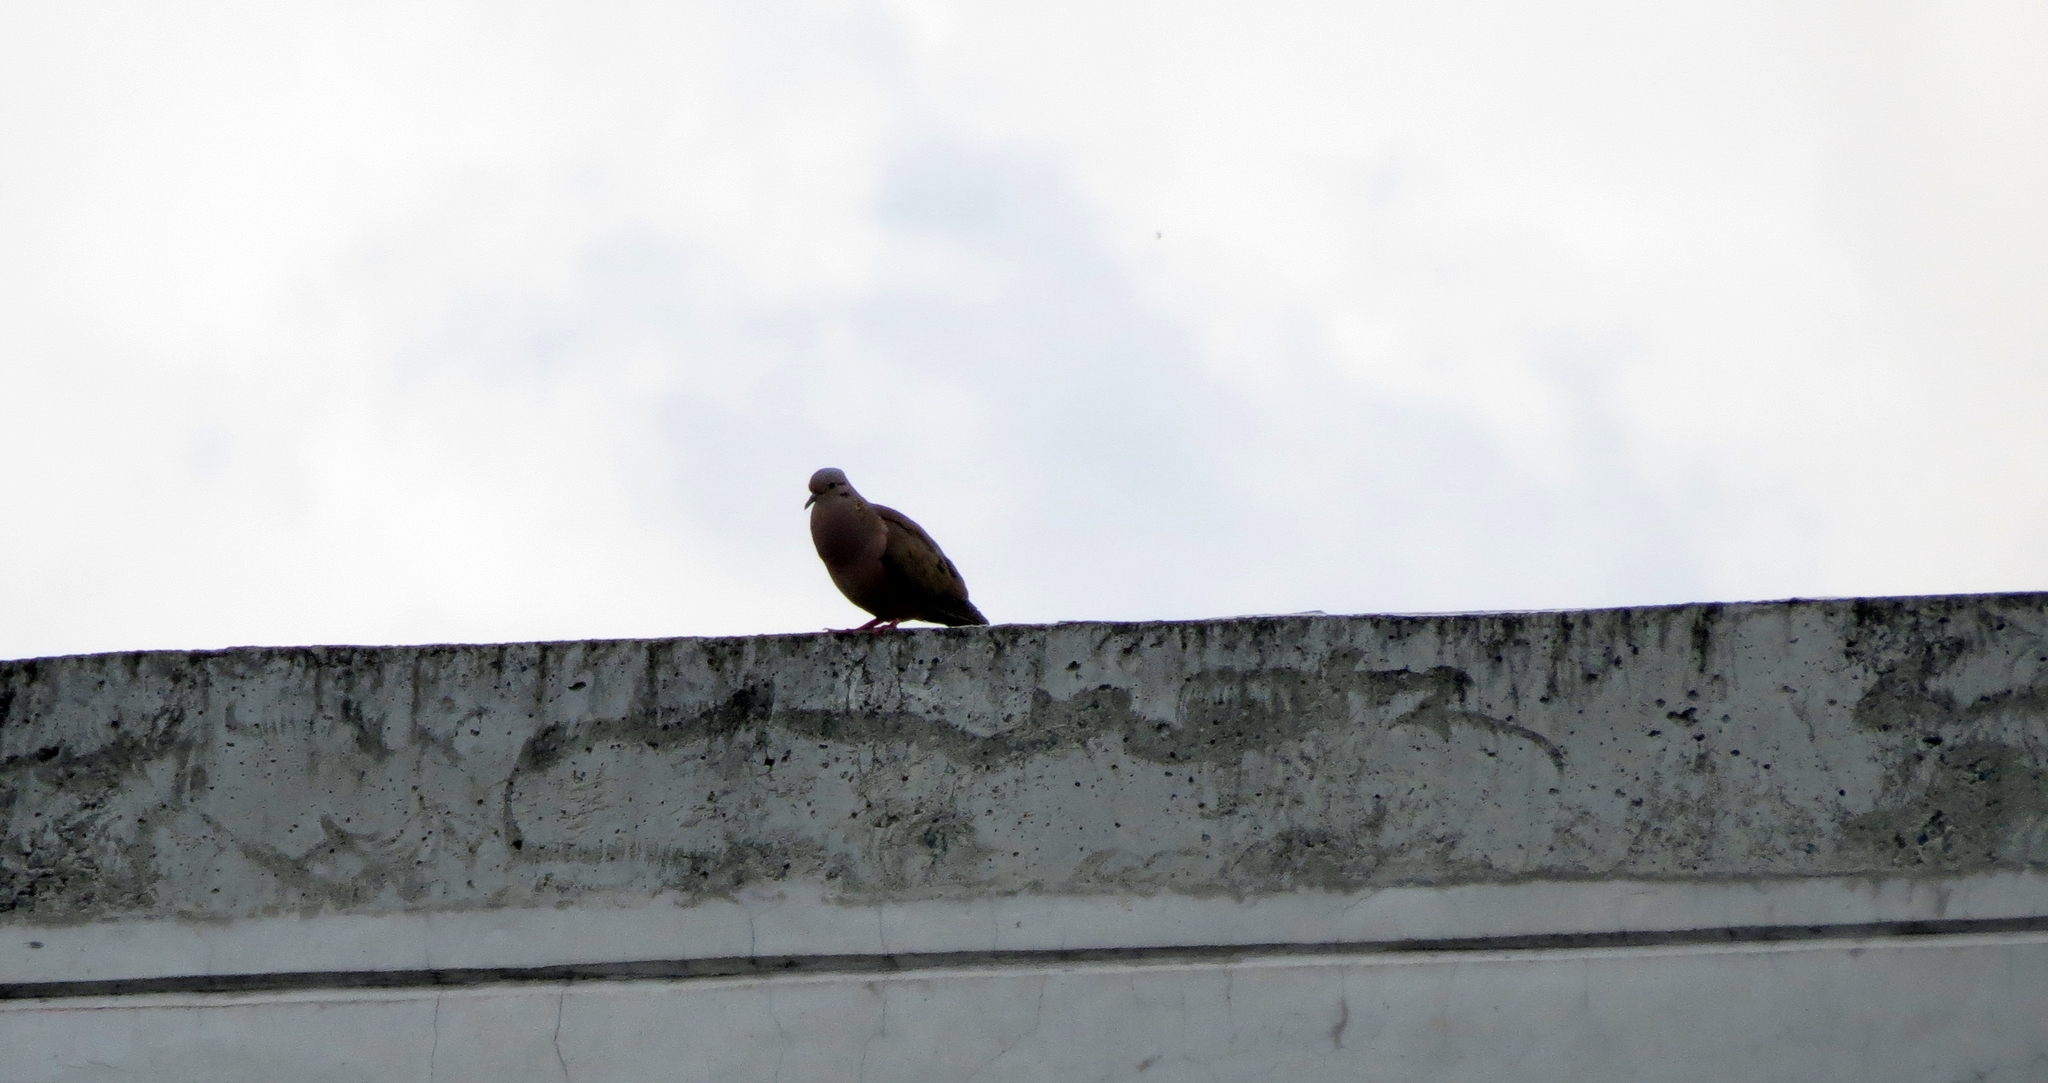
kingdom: Animalia
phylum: Chordata
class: Aves
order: Columbiformes
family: Columbidae
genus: Zenaida
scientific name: Zenaida auriculata
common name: Eared dove
